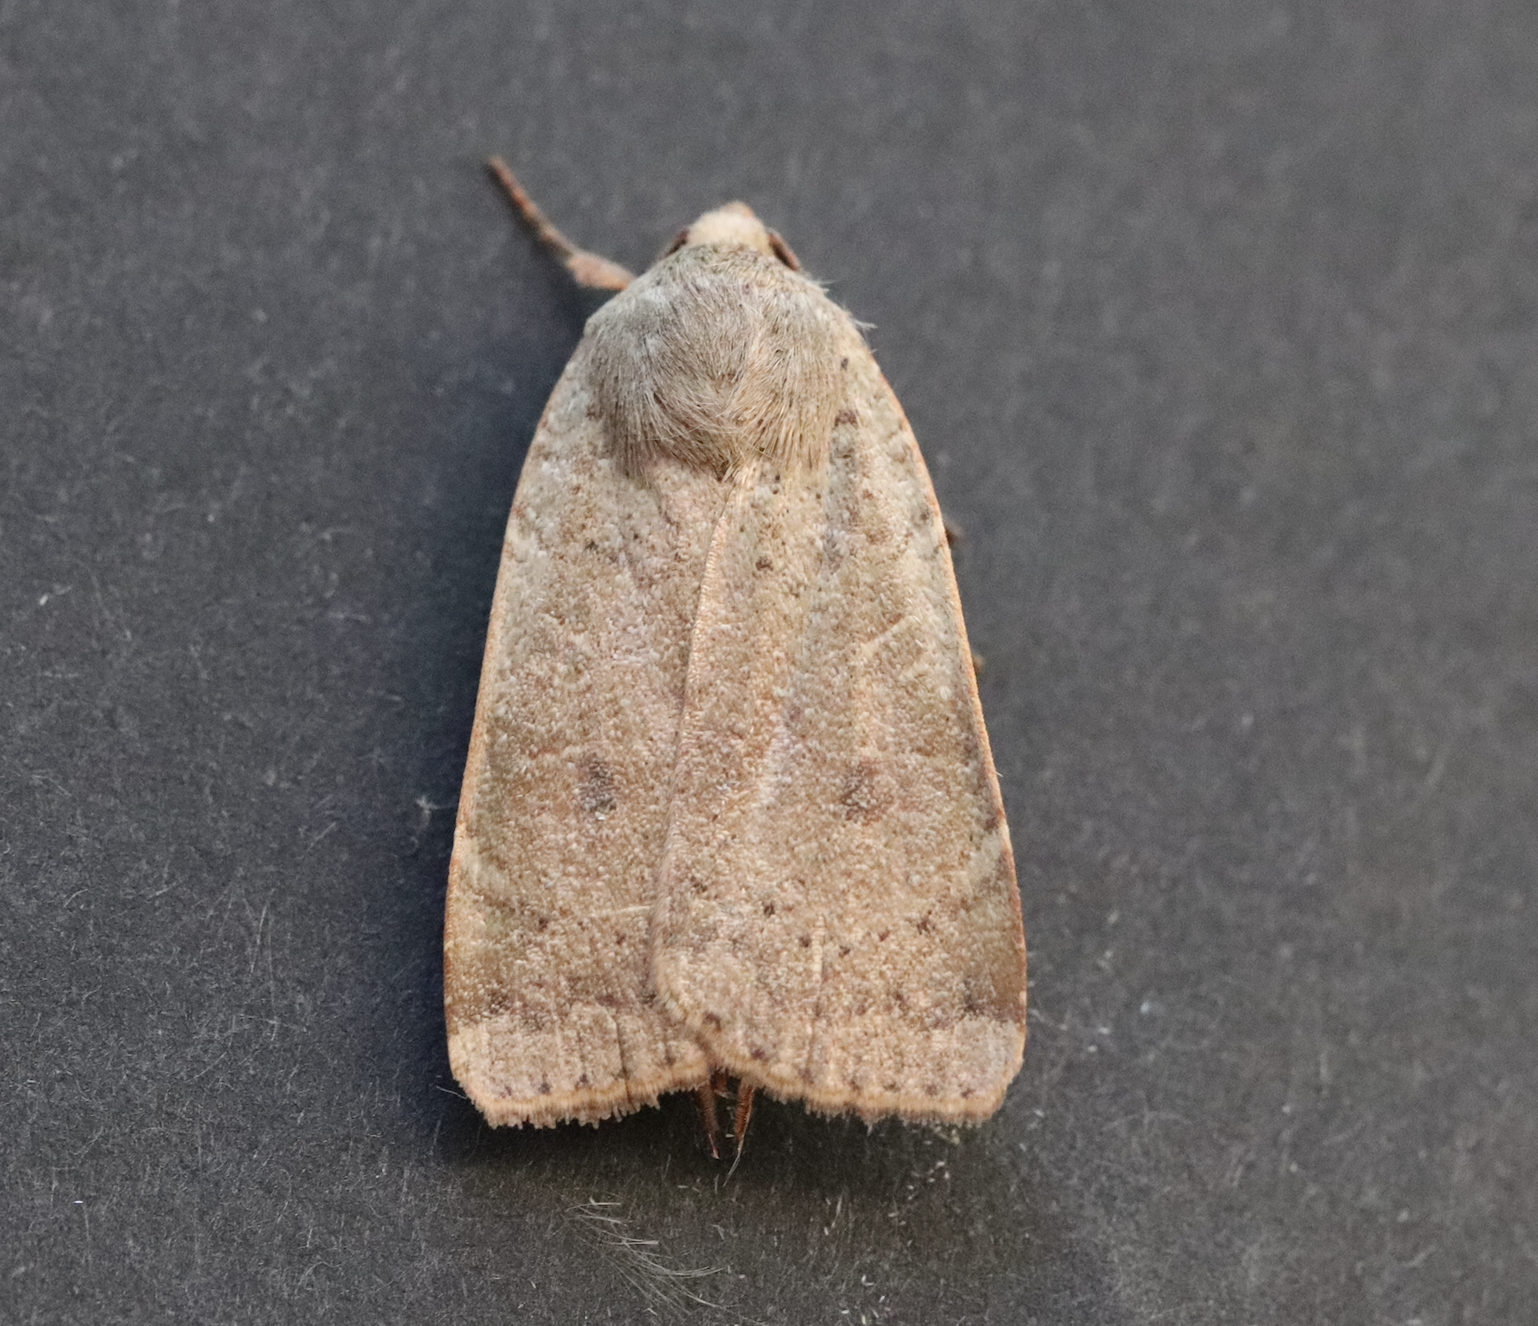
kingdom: Animalia
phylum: Arthropoda
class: Insecta
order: Lepidoptera
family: Noctuidae
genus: Noctua
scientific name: Noctua comes
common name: Lesser yellow underwing
